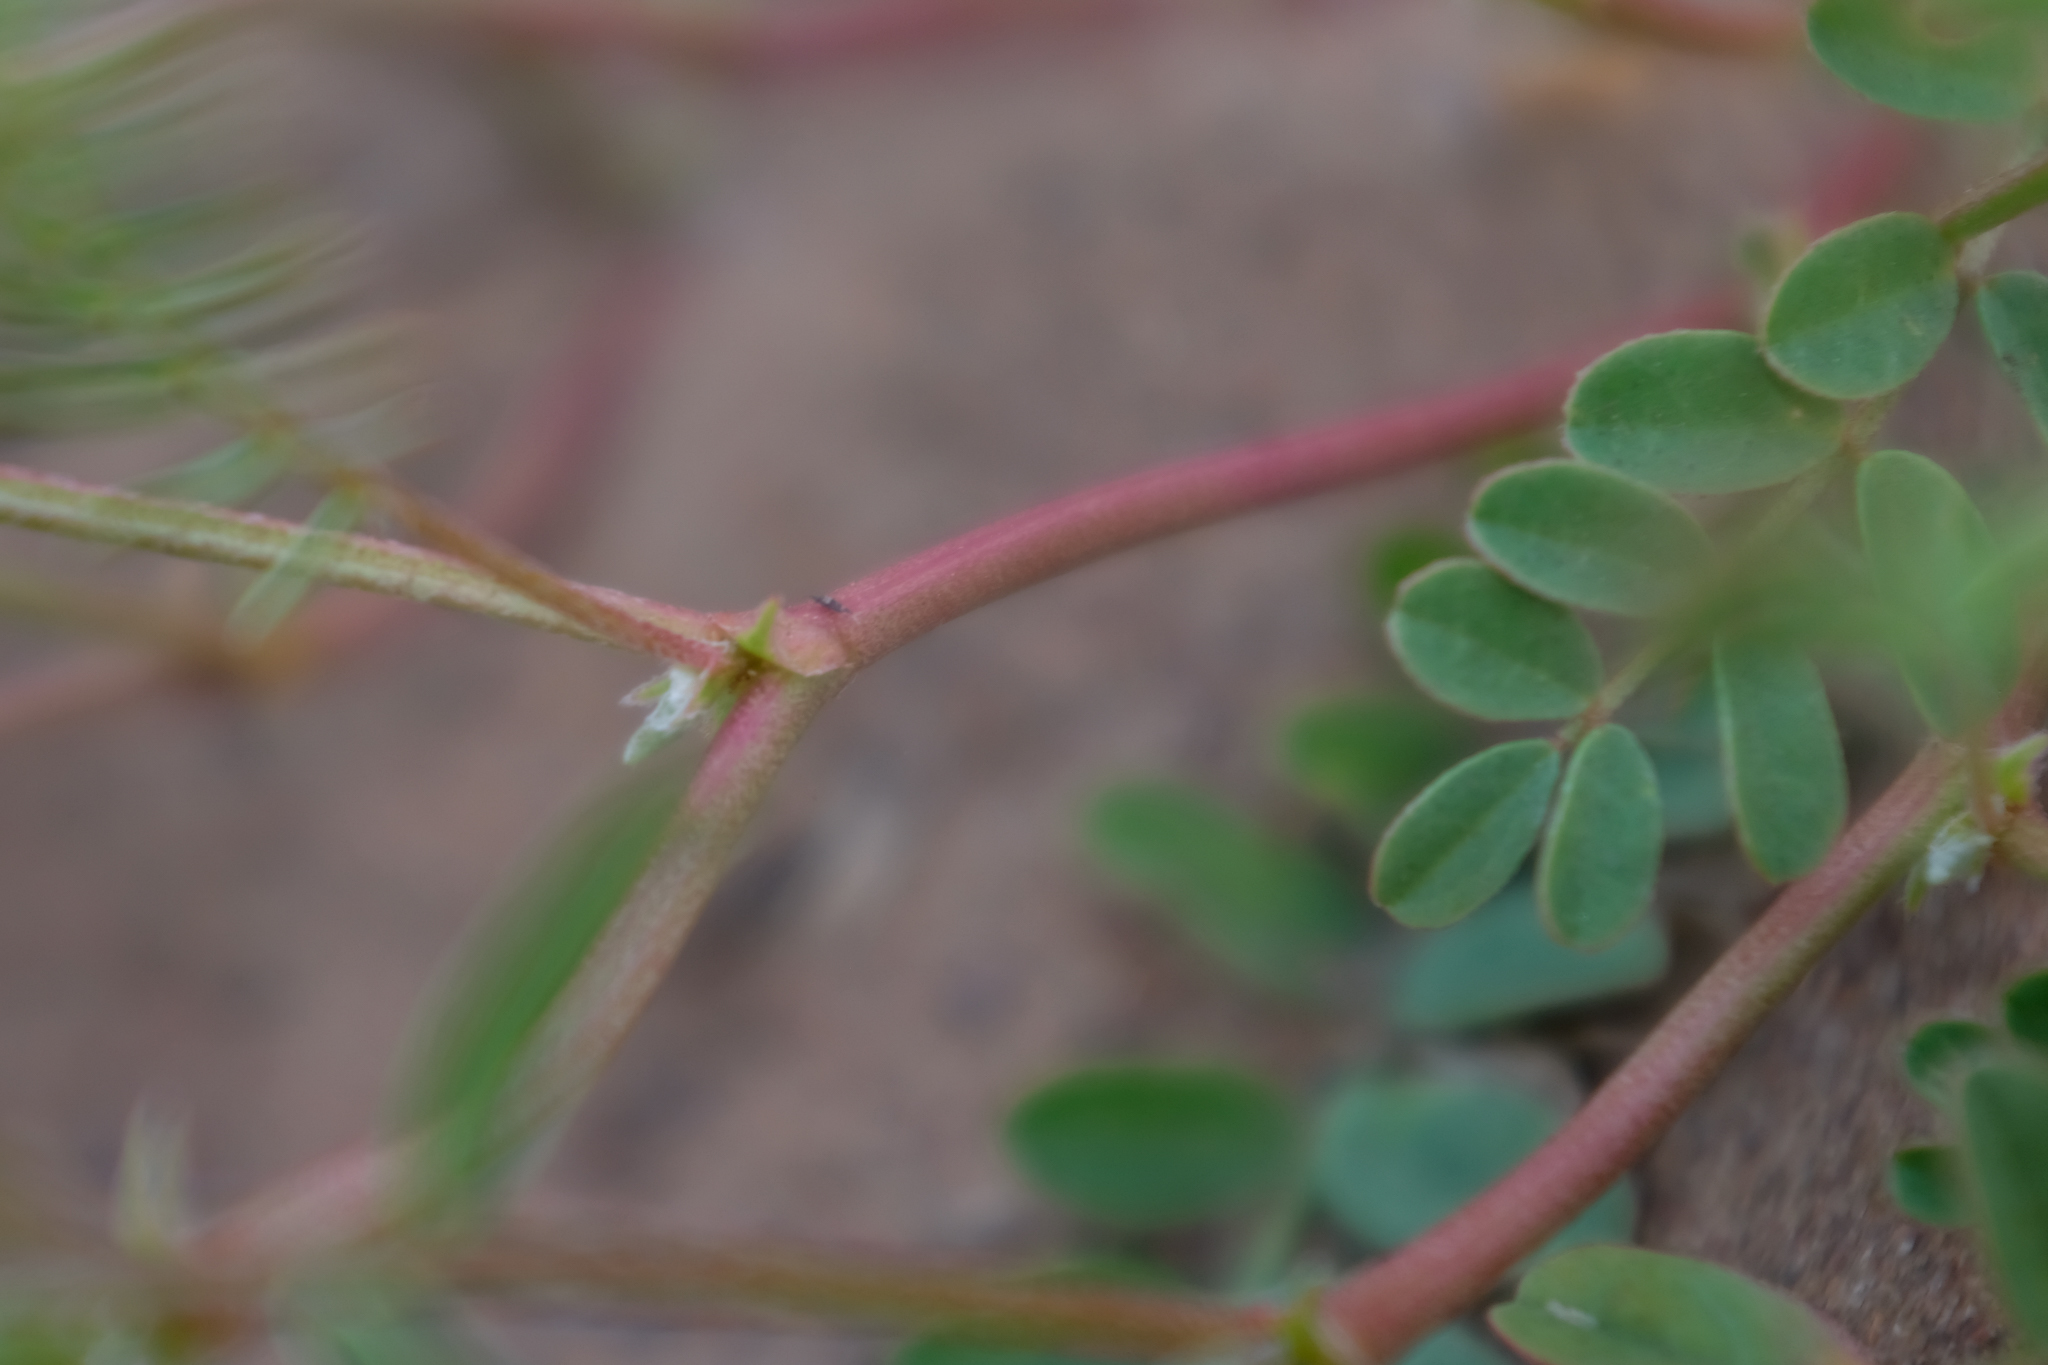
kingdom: Plantae
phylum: Tracheophyta
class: Magnoliopsida
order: Fabales
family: Fabaceae
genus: Astragalus
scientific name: Astragalus pomonensis
